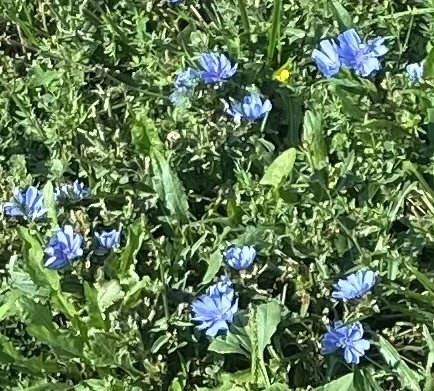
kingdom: Plantae
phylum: Tracheophyta
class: Magnoliopsida
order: Asterales
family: Asteraceae
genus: Cichorium
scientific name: Cichorium intybus
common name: Chicory
